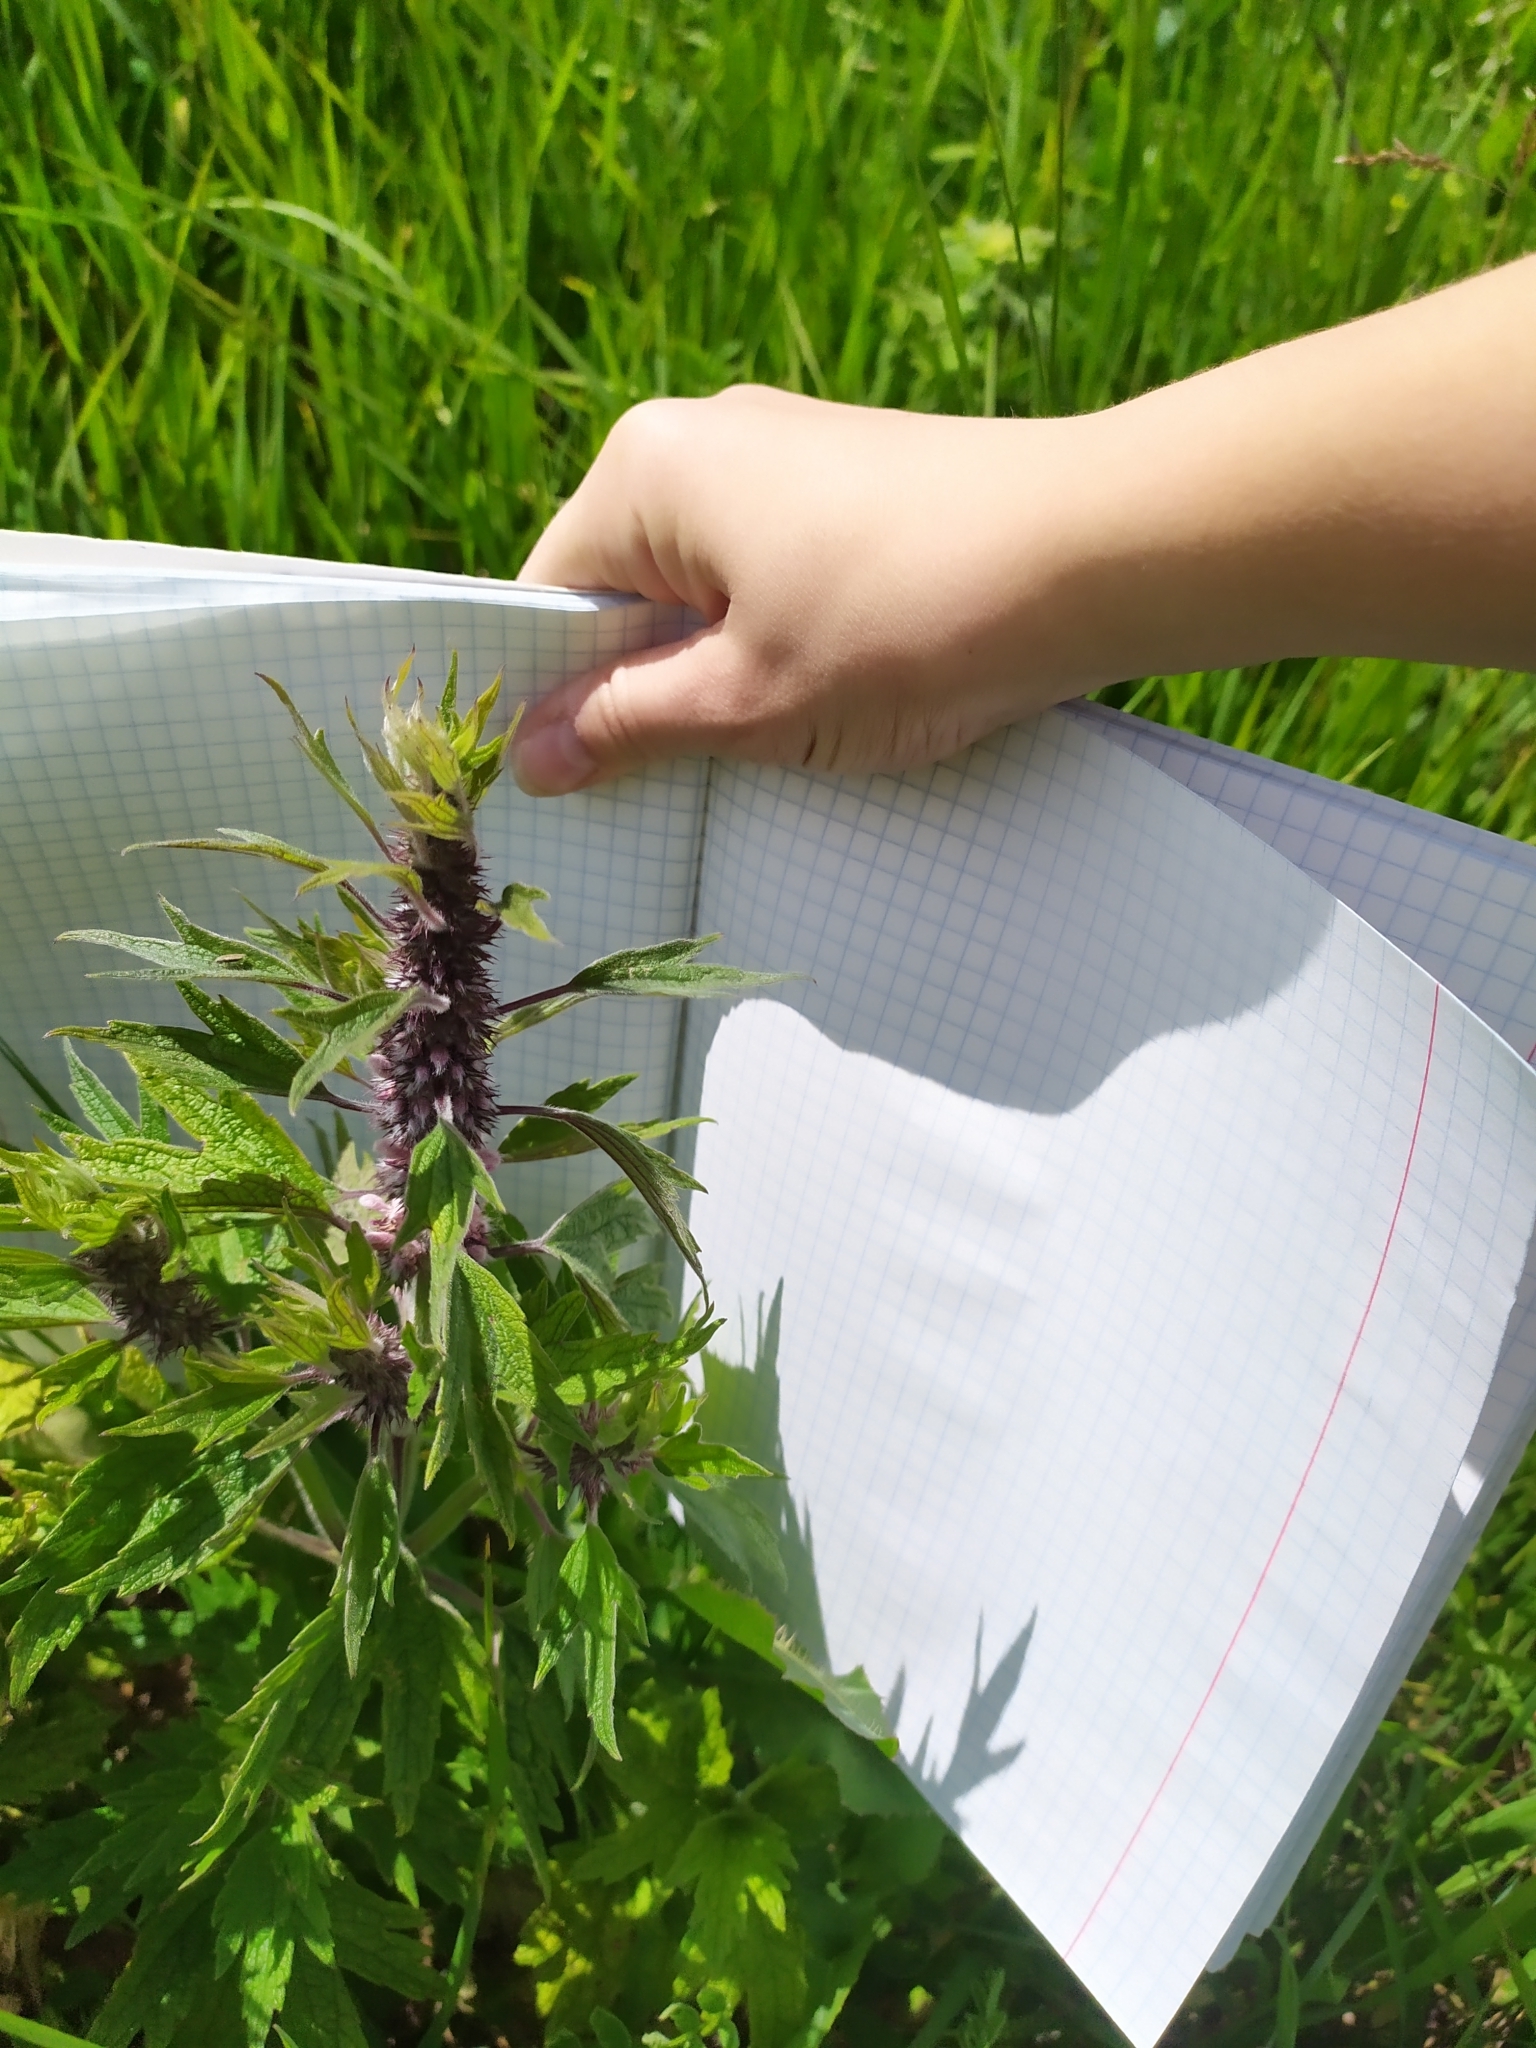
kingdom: Plantae
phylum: Tracheophyta
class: Magnoliopsida
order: Lamiales
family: Lamiaceae
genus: Leonurus
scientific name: Leonurus quinquelobatus
